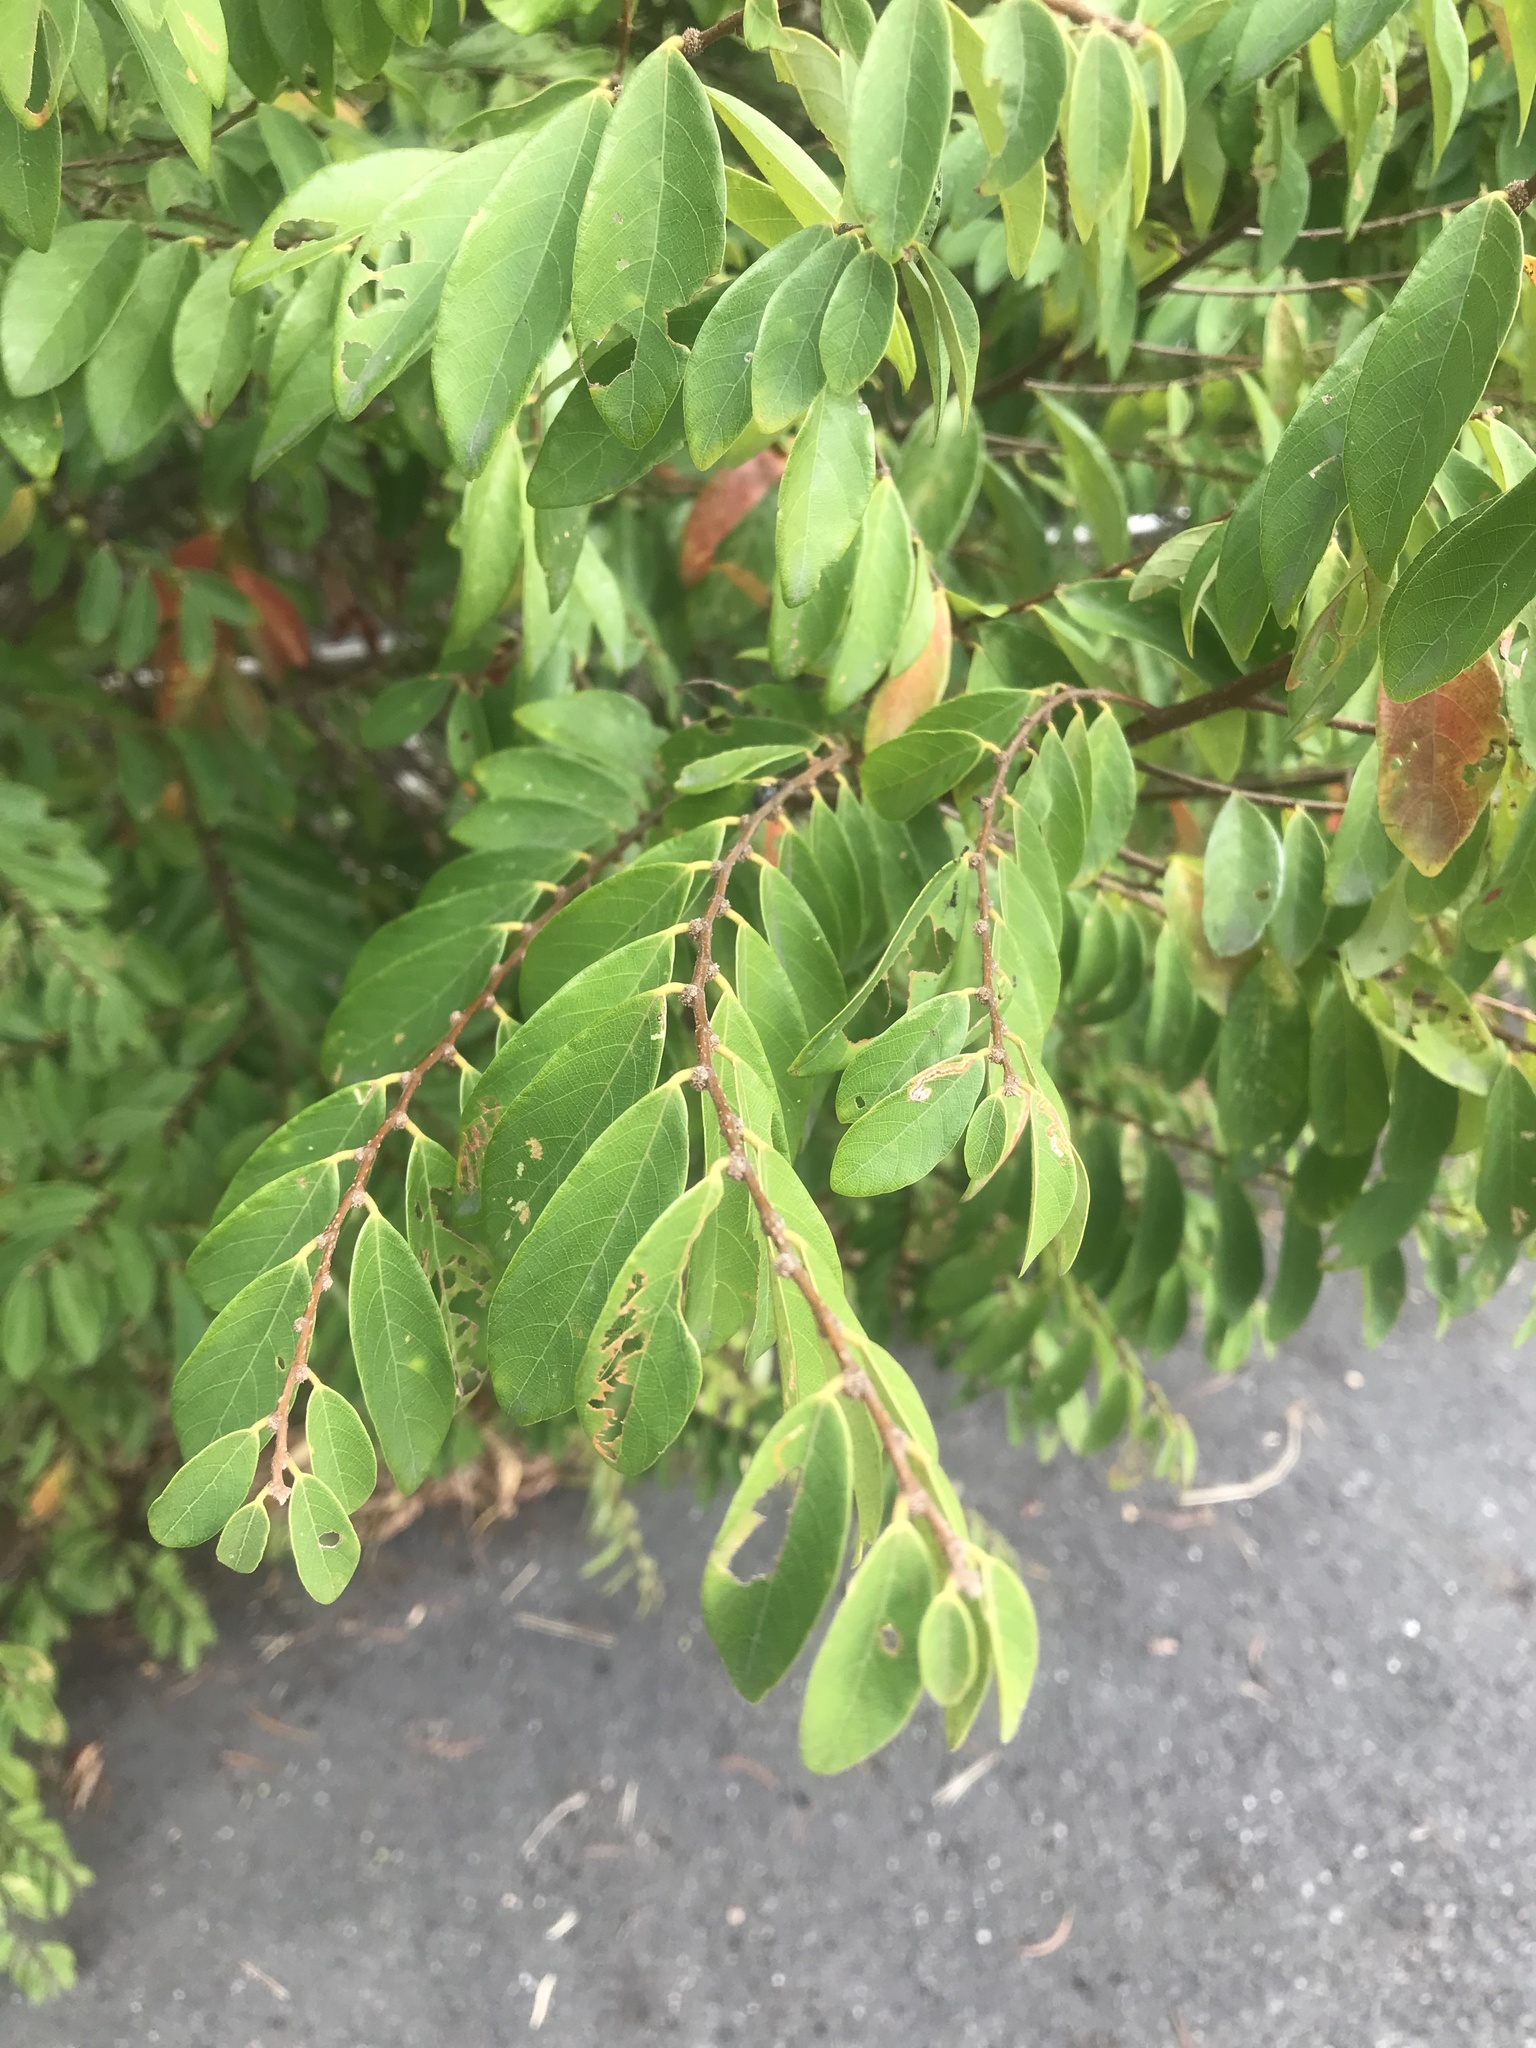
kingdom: Plantae
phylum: Tracheophyta
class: Magnoliopsida
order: Malpighiales
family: Phyllanthaceae
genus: Bridelia
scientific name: Bridelia tomentosa
